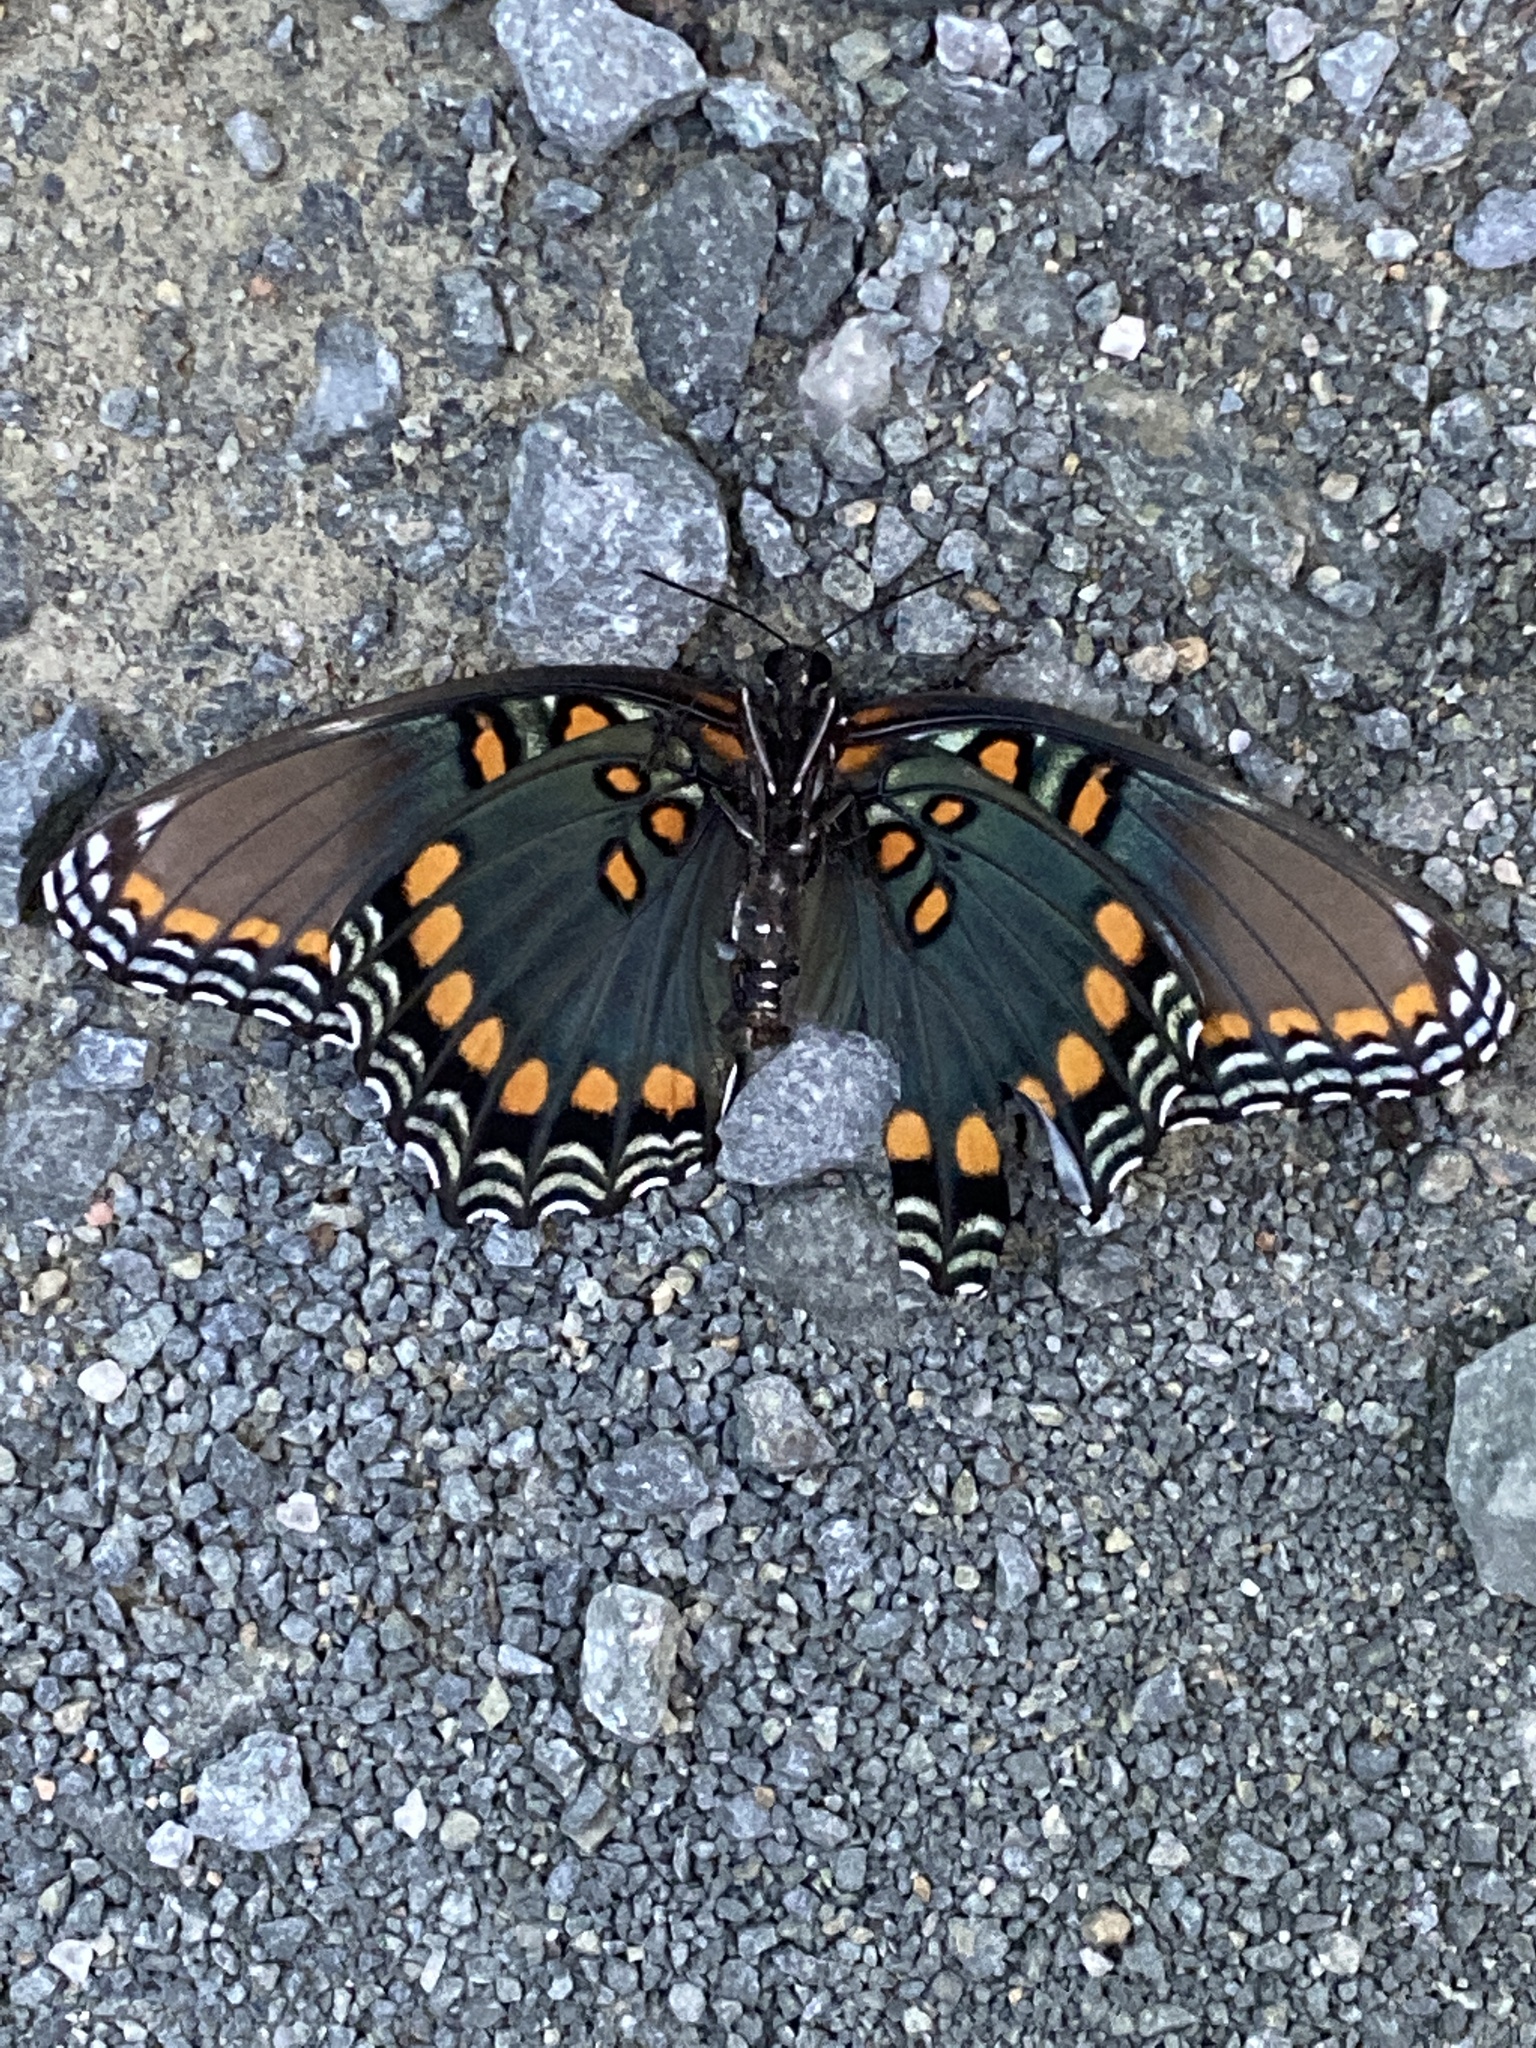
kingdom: Animalia
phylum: Arthropoda
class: Insecta
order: Lepidoptera
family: Nymphalidae
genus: Limenitis
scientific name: Limenitis astyanax
